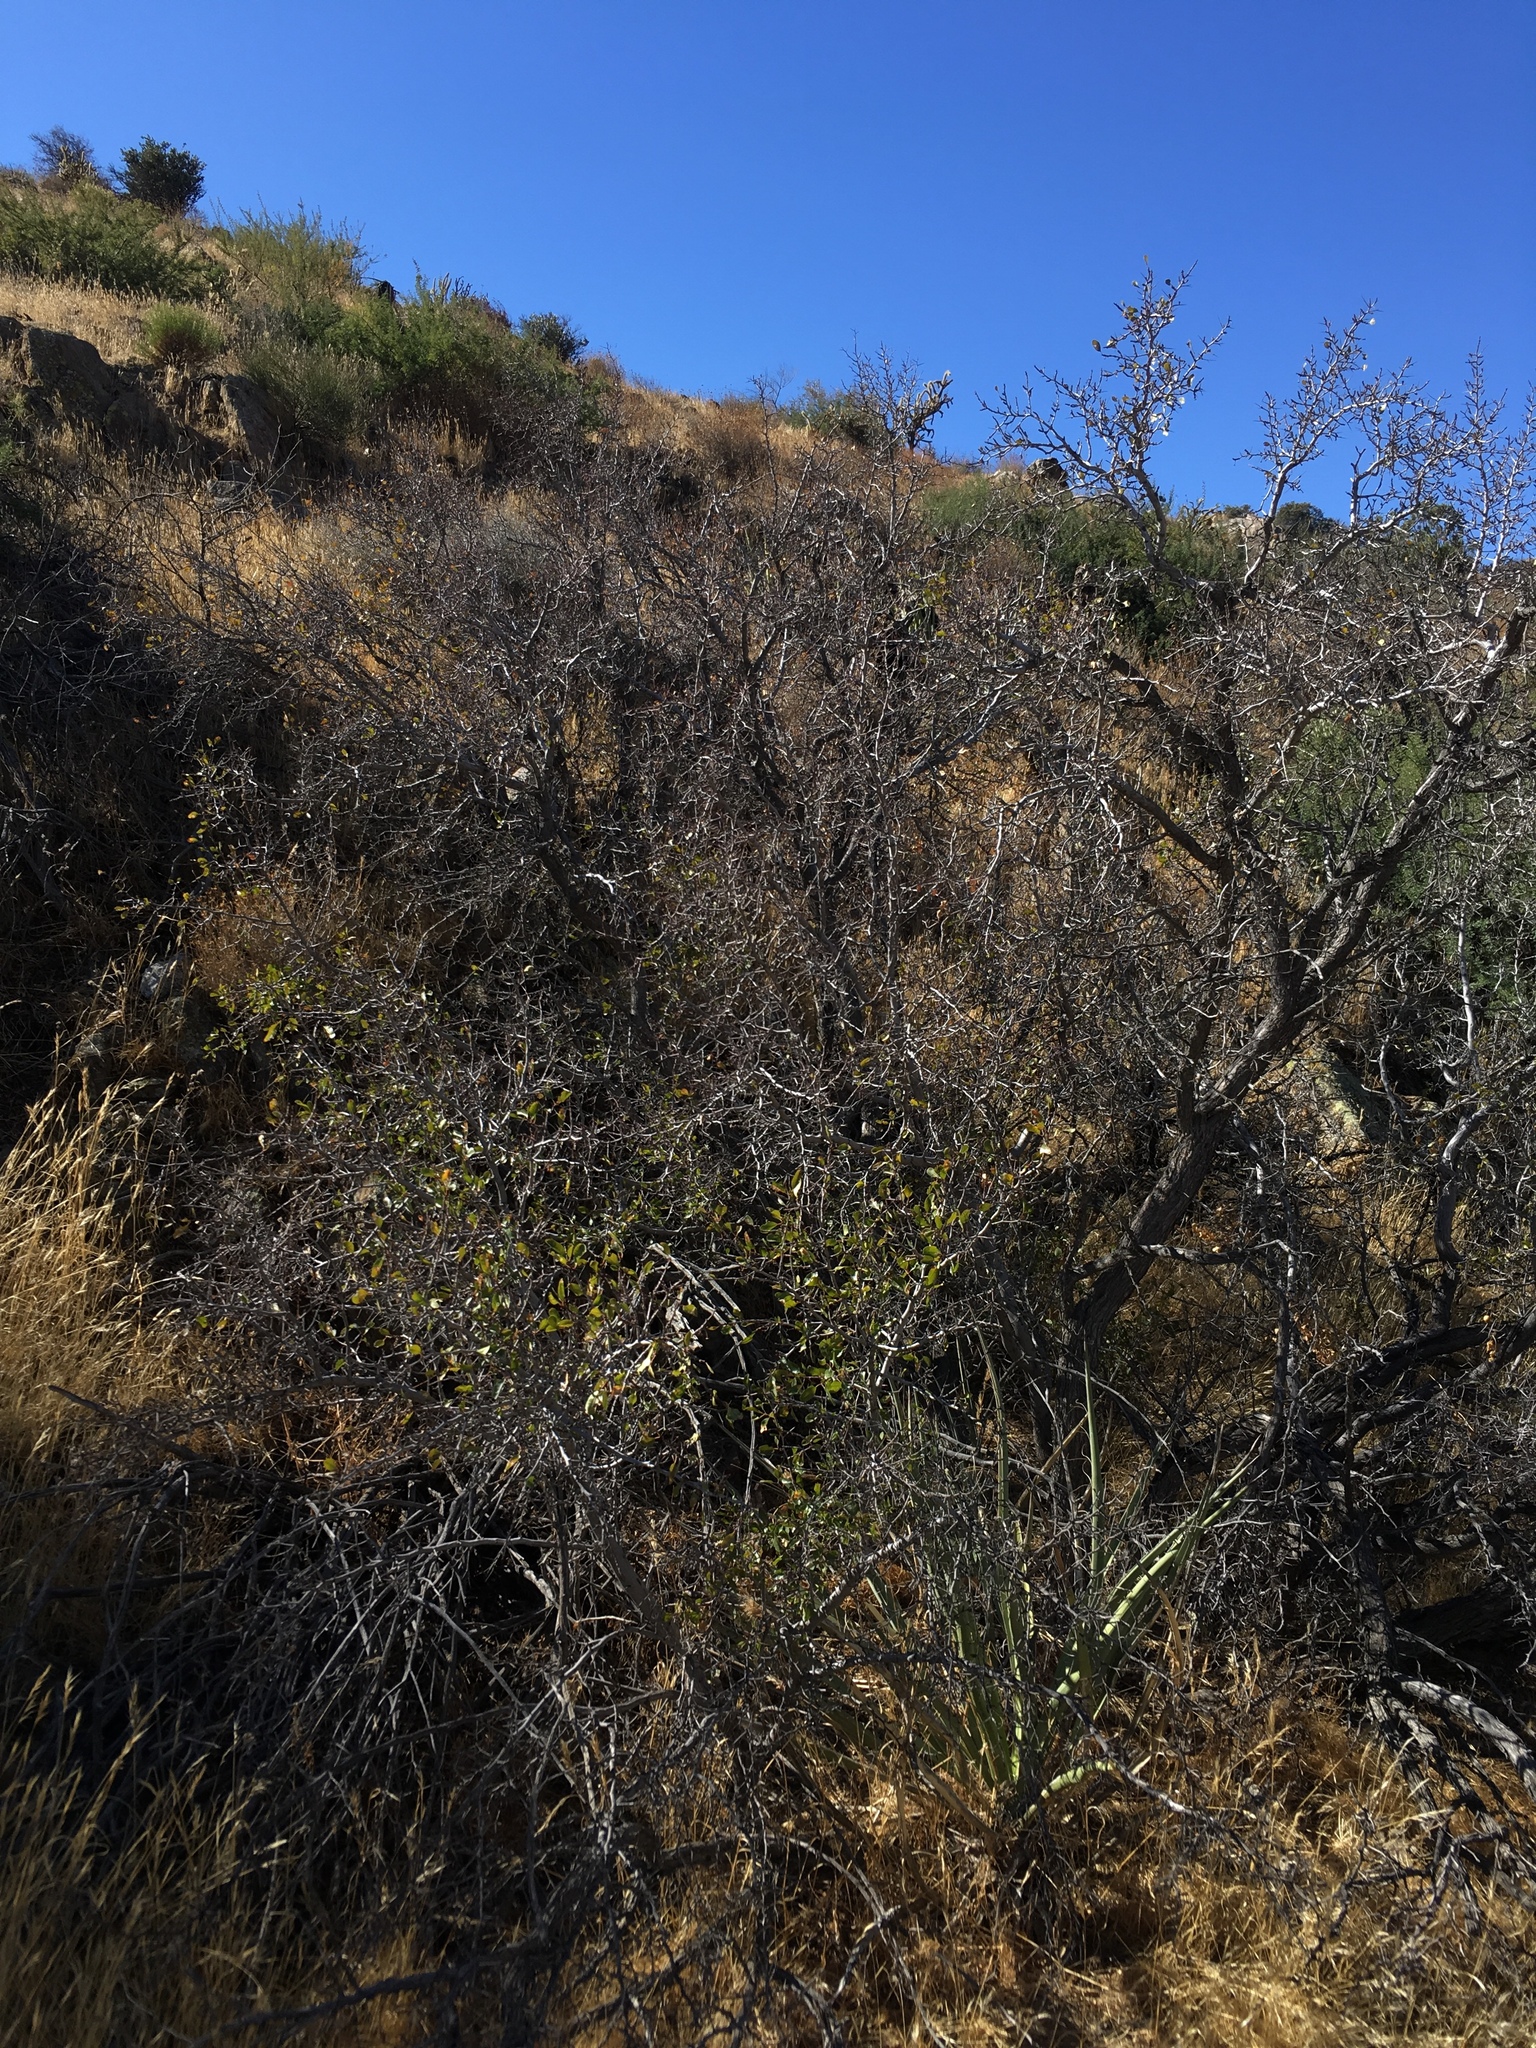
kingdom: Plantae
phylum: Tracheophyta
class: Magnoliopsida
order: Rosales
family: Rhamnaceae
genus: Pseudoziziphus
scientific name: Pseudoziziphus parryi
